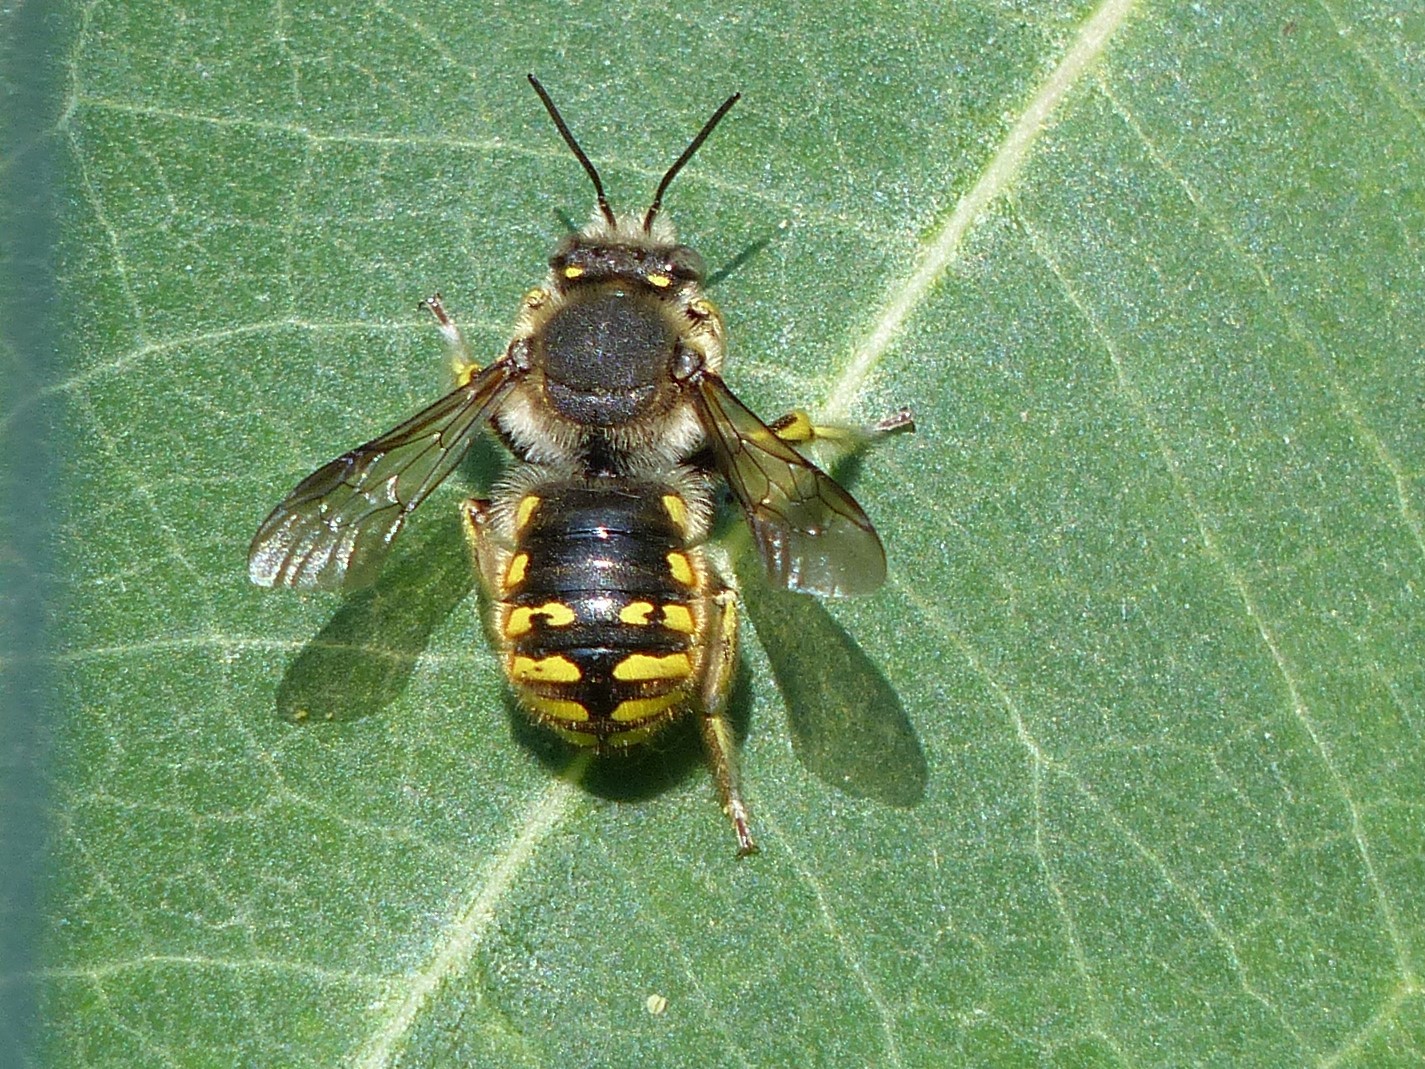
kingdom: Animalia
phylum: Arthropoda
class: Insecta
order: Hymenoptera
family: Megachilidae
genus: Anthidium
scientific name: Anthidium manicatum
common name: Wool carder bee
